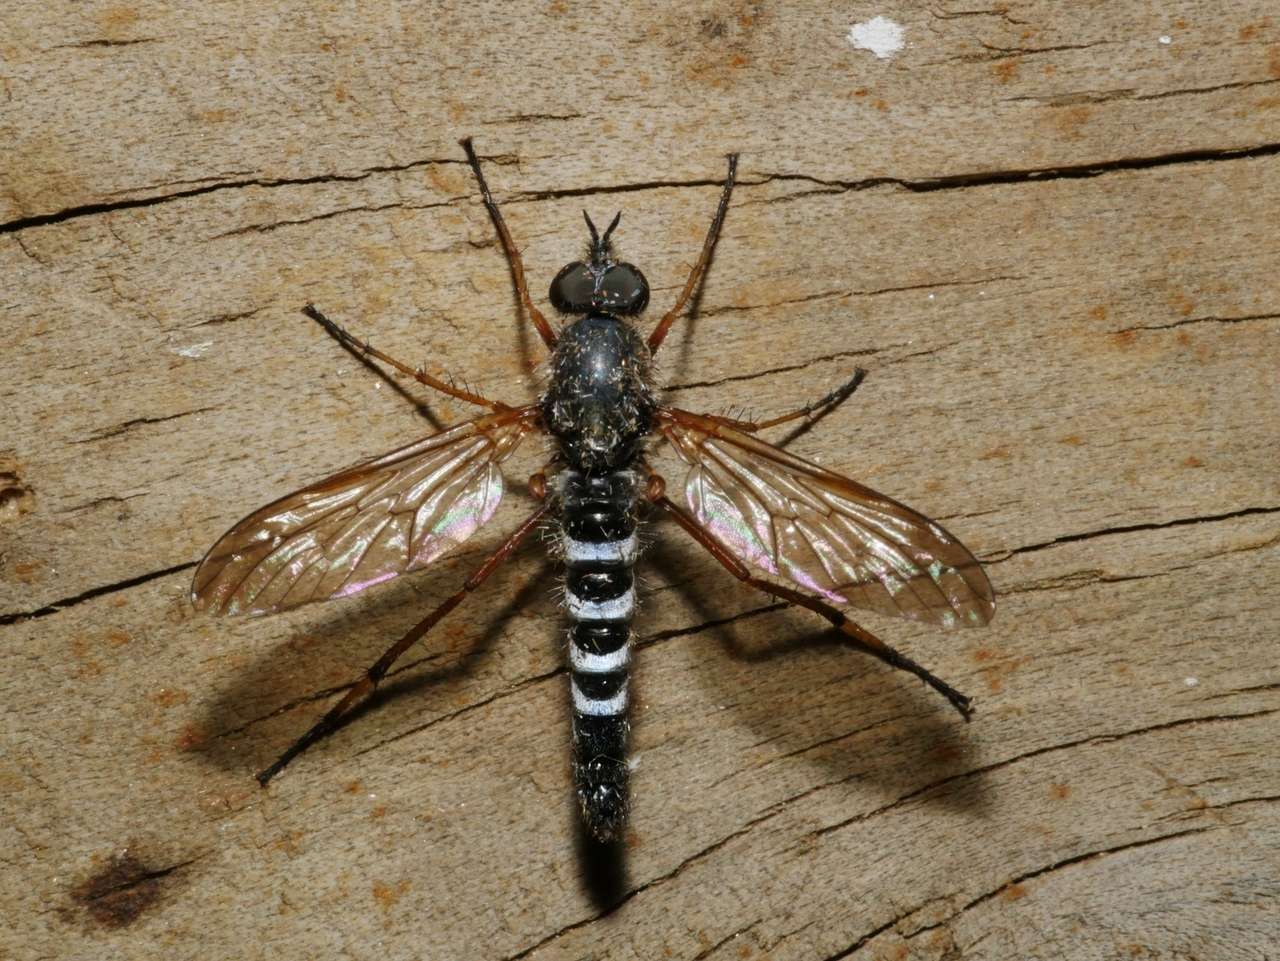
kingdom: Animalia
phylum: Arthropoda
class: Insecta
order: Diptera
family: Therevidae
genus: Taenogerella
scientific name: Taenogerella platina
